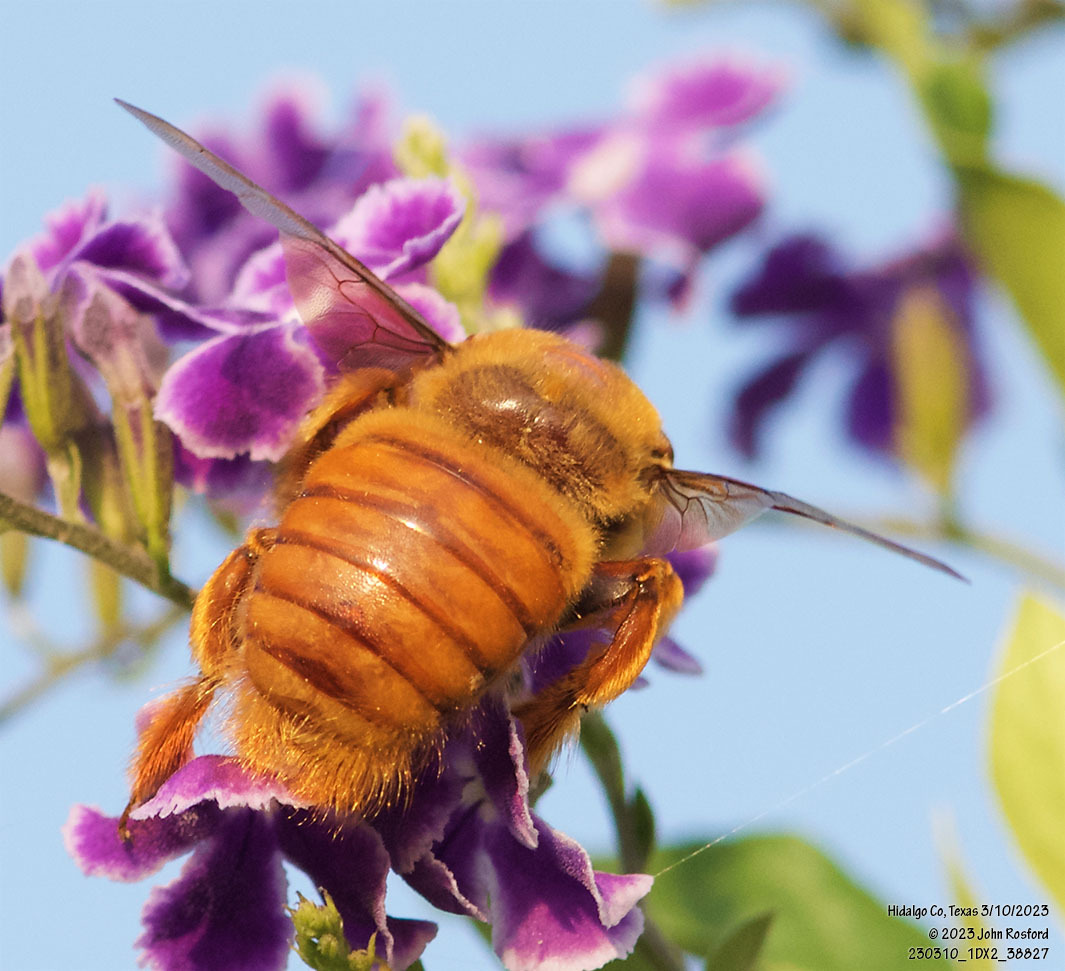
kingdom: Animalia
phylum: Arthropoda
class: Insecta
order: Hymenoptera
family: Apidae
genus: Xylocopa
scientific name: Xylocopa griswoldi
